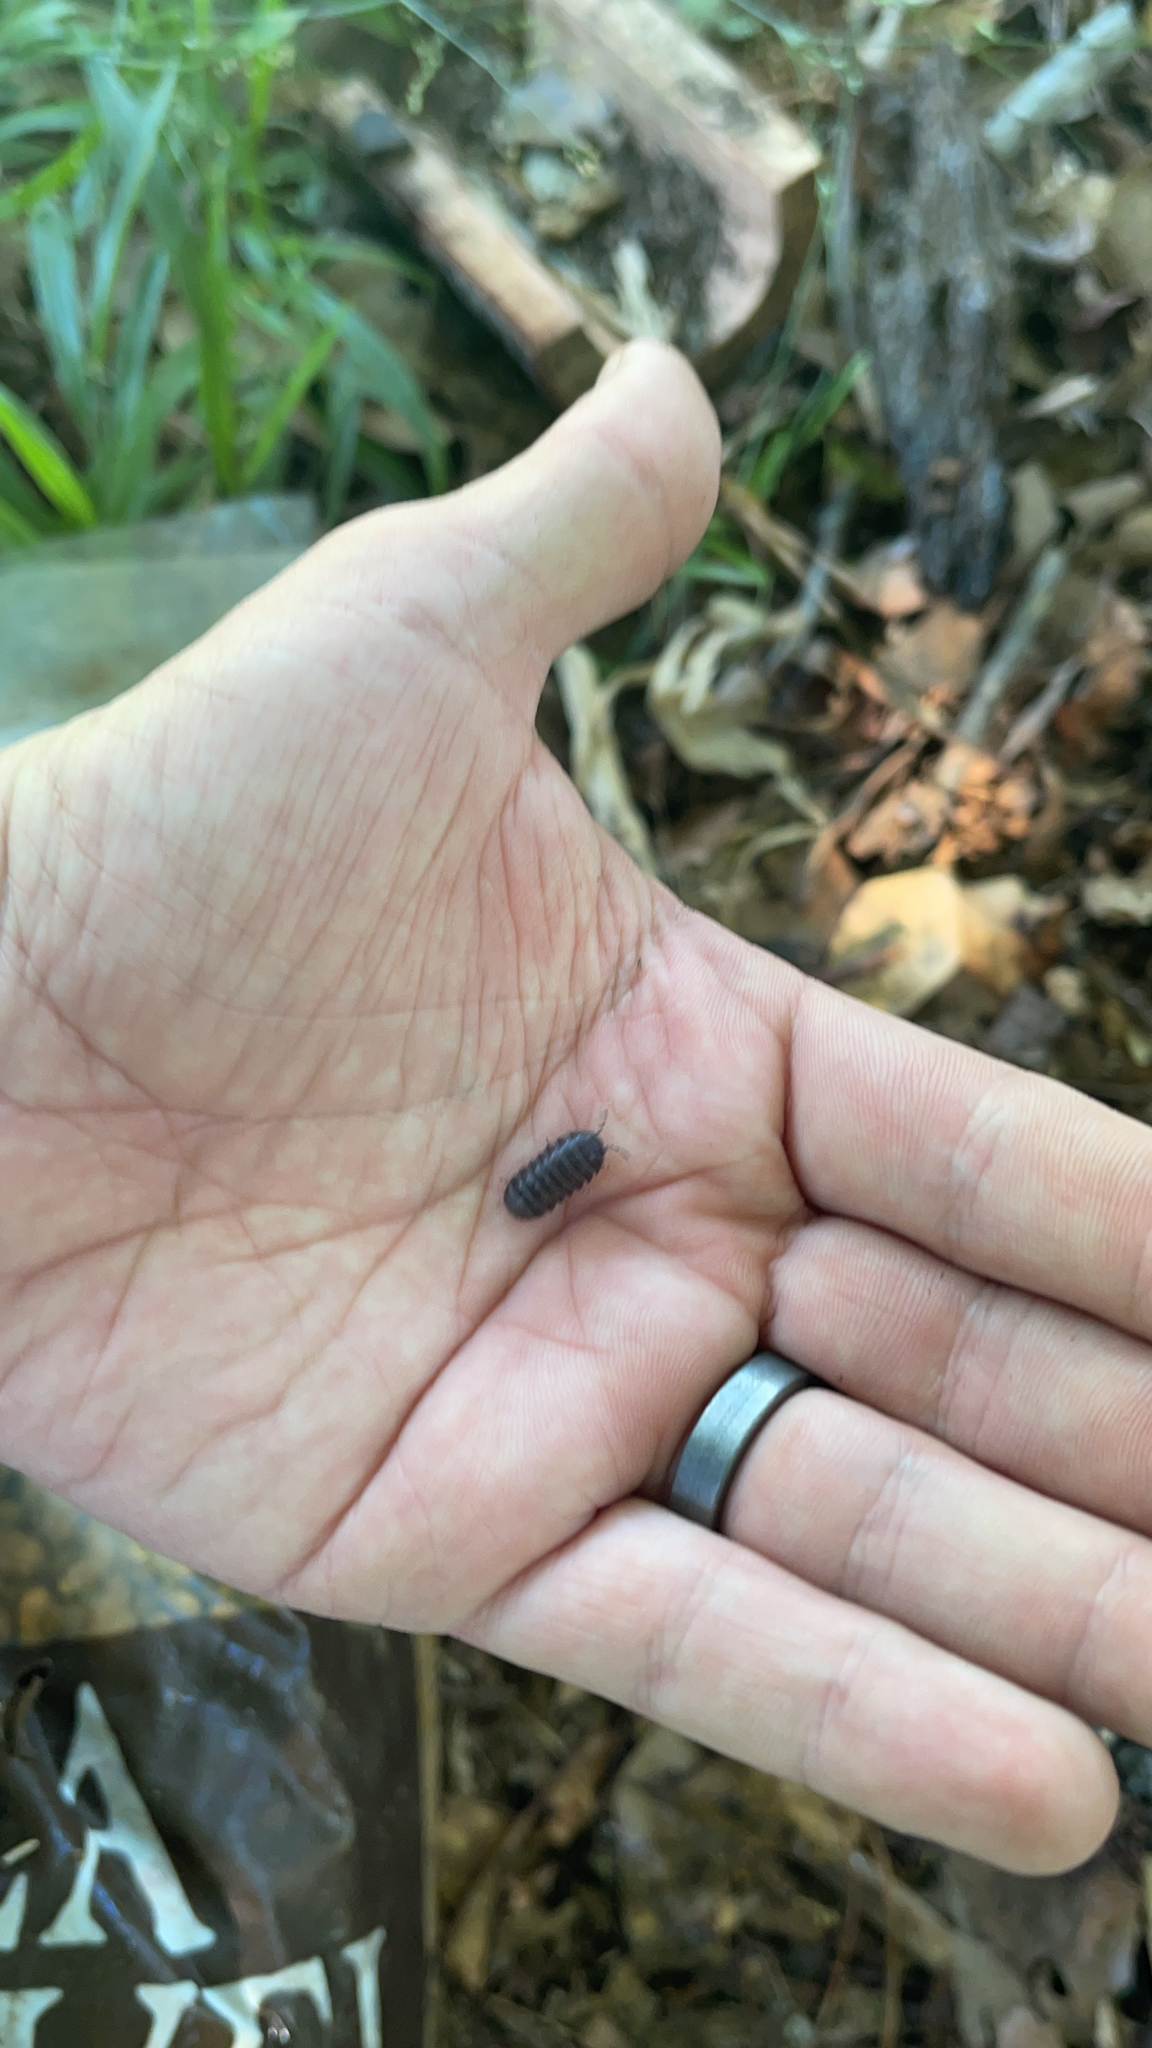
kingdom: Animalia
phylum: Arthropoda
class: Malacostraca
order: Isopoda
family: Armadillidiidae
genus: Armadillidium
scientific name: Armadillidium vulgare
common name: Common pill woodlouse
